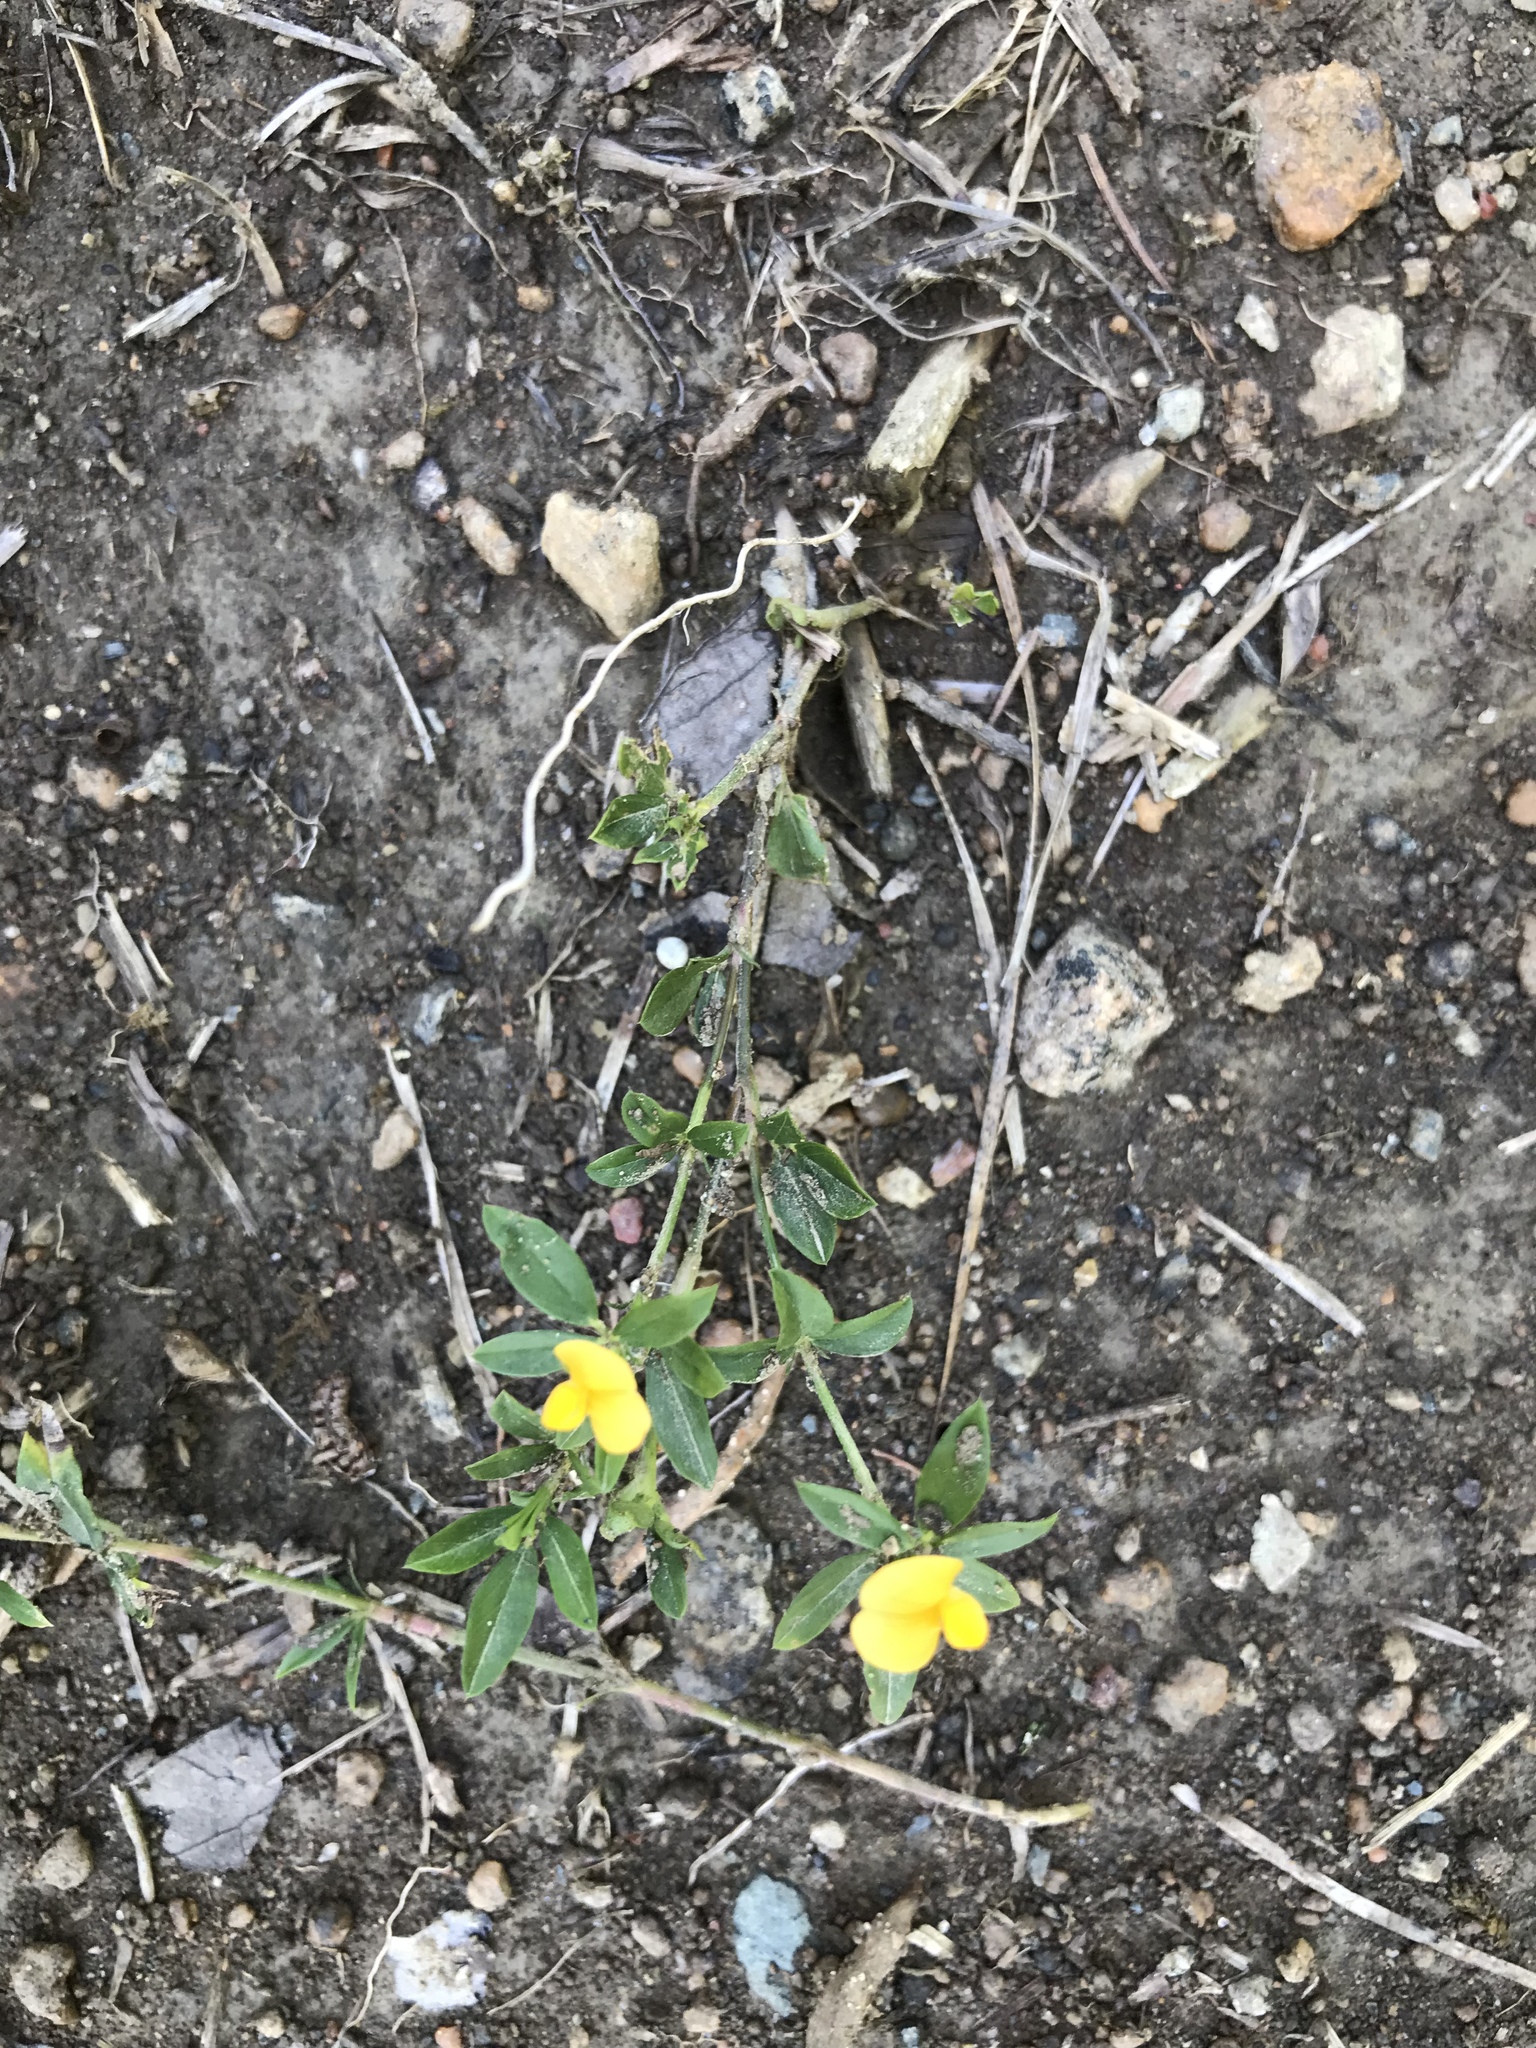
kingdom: Plantae
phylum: Tracheophyta
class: Magnoliopsida
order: Fabales
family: Fabaceae
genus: Stylosanthes
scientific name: Stylosanthes biflora
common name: Two-flower pencil-flower
